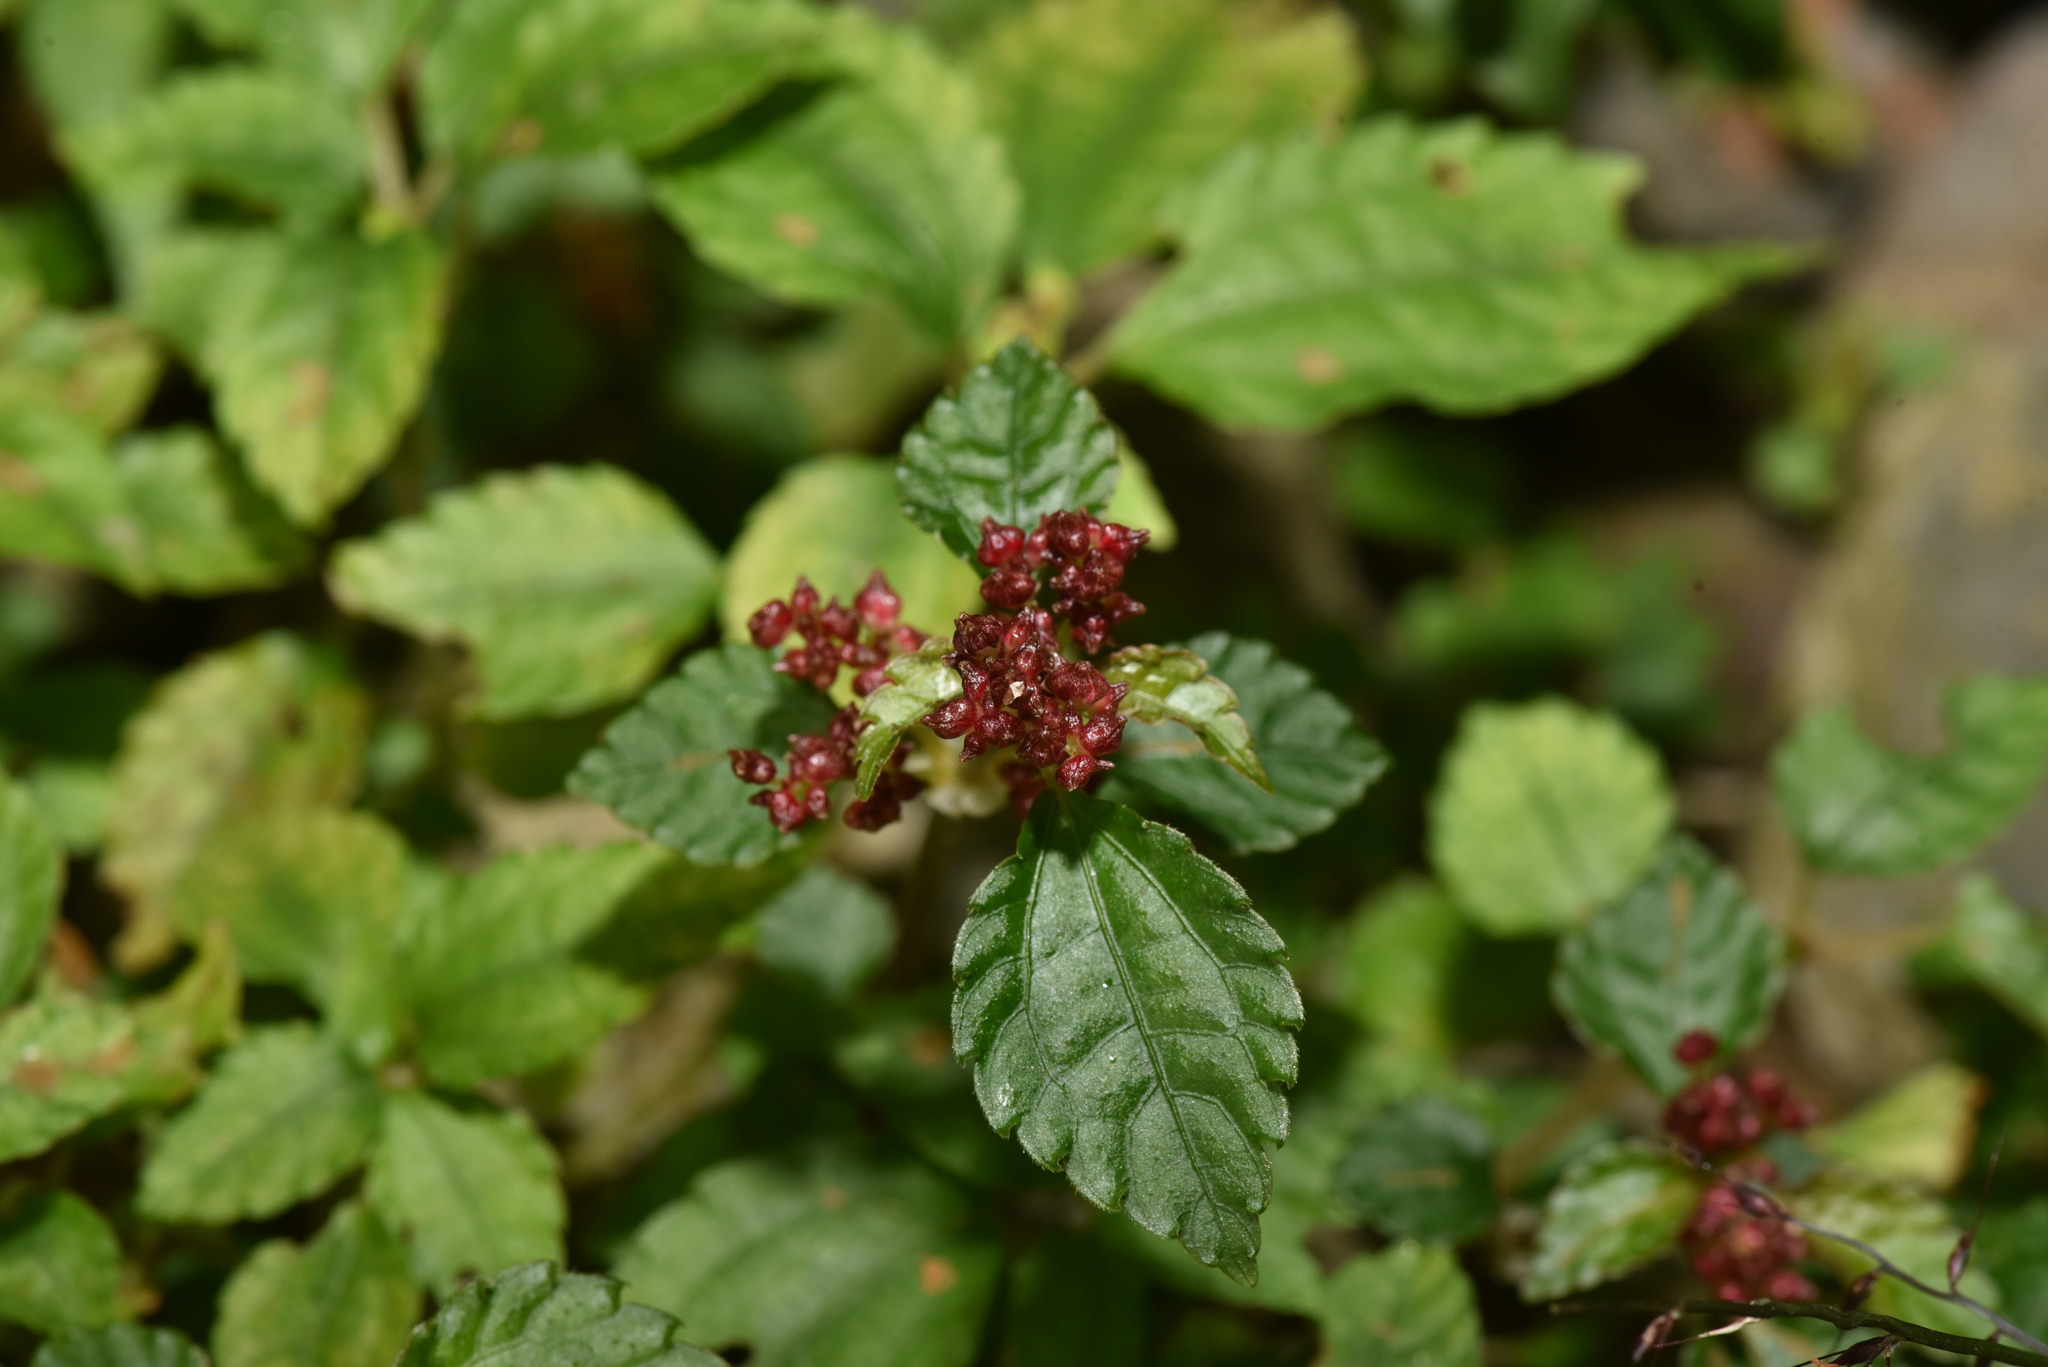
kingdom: Plantae
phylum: Tracheophyta
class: Magnoliopsida
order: Rosales
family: Urticaceae
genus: Pilea
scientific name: Pilea aquarum
